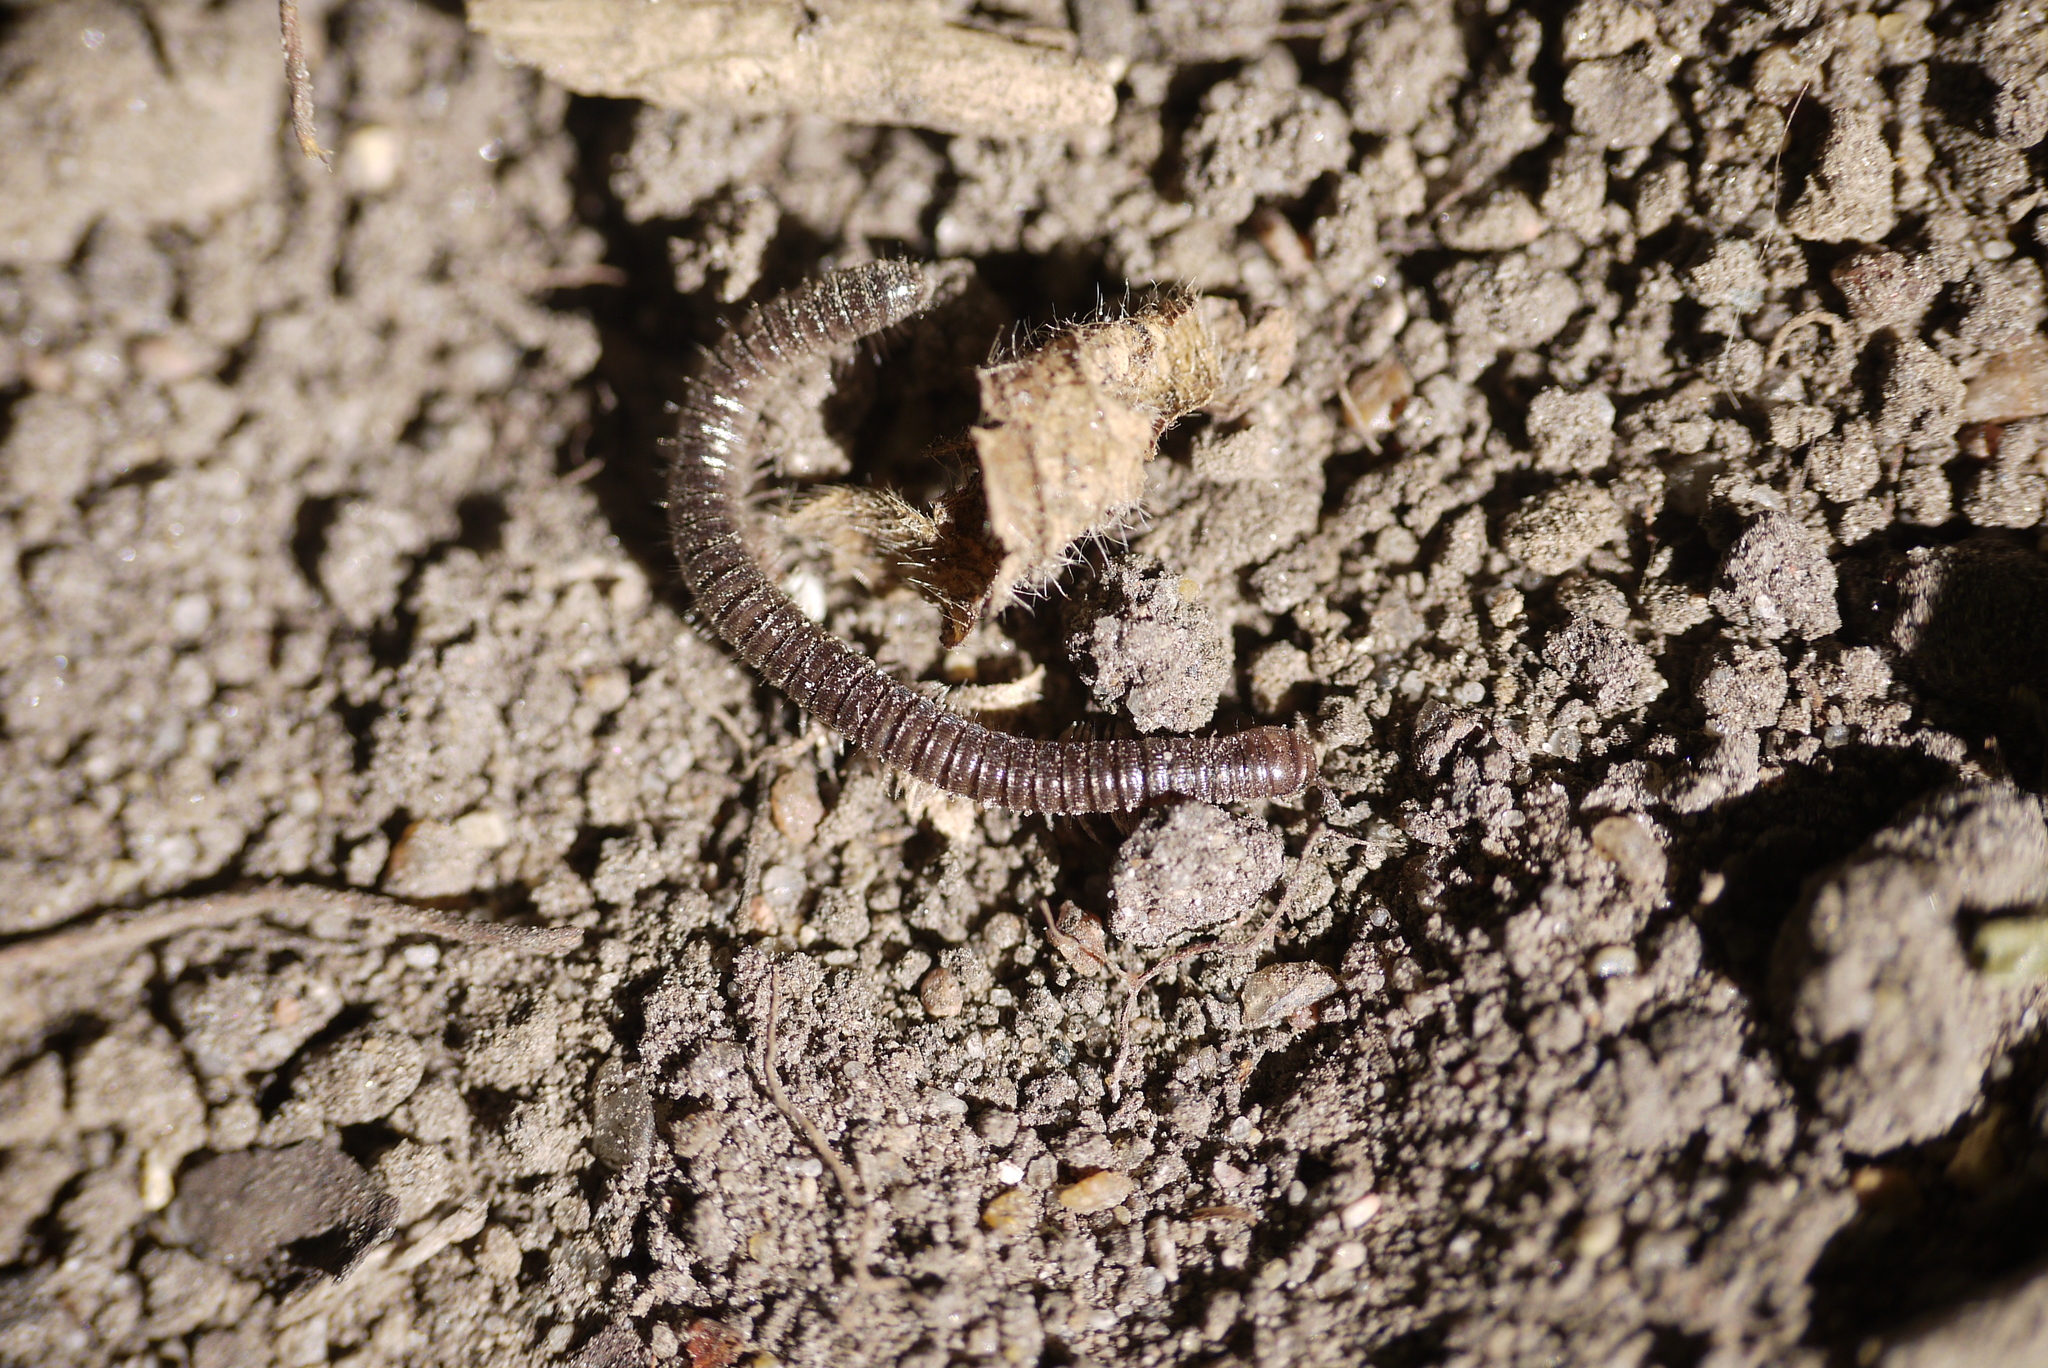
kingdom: Animalia
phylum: Arthropoda
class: Diplopoda
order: Julida
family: Julidae
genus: Unciger
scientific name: Unciger foetidus
